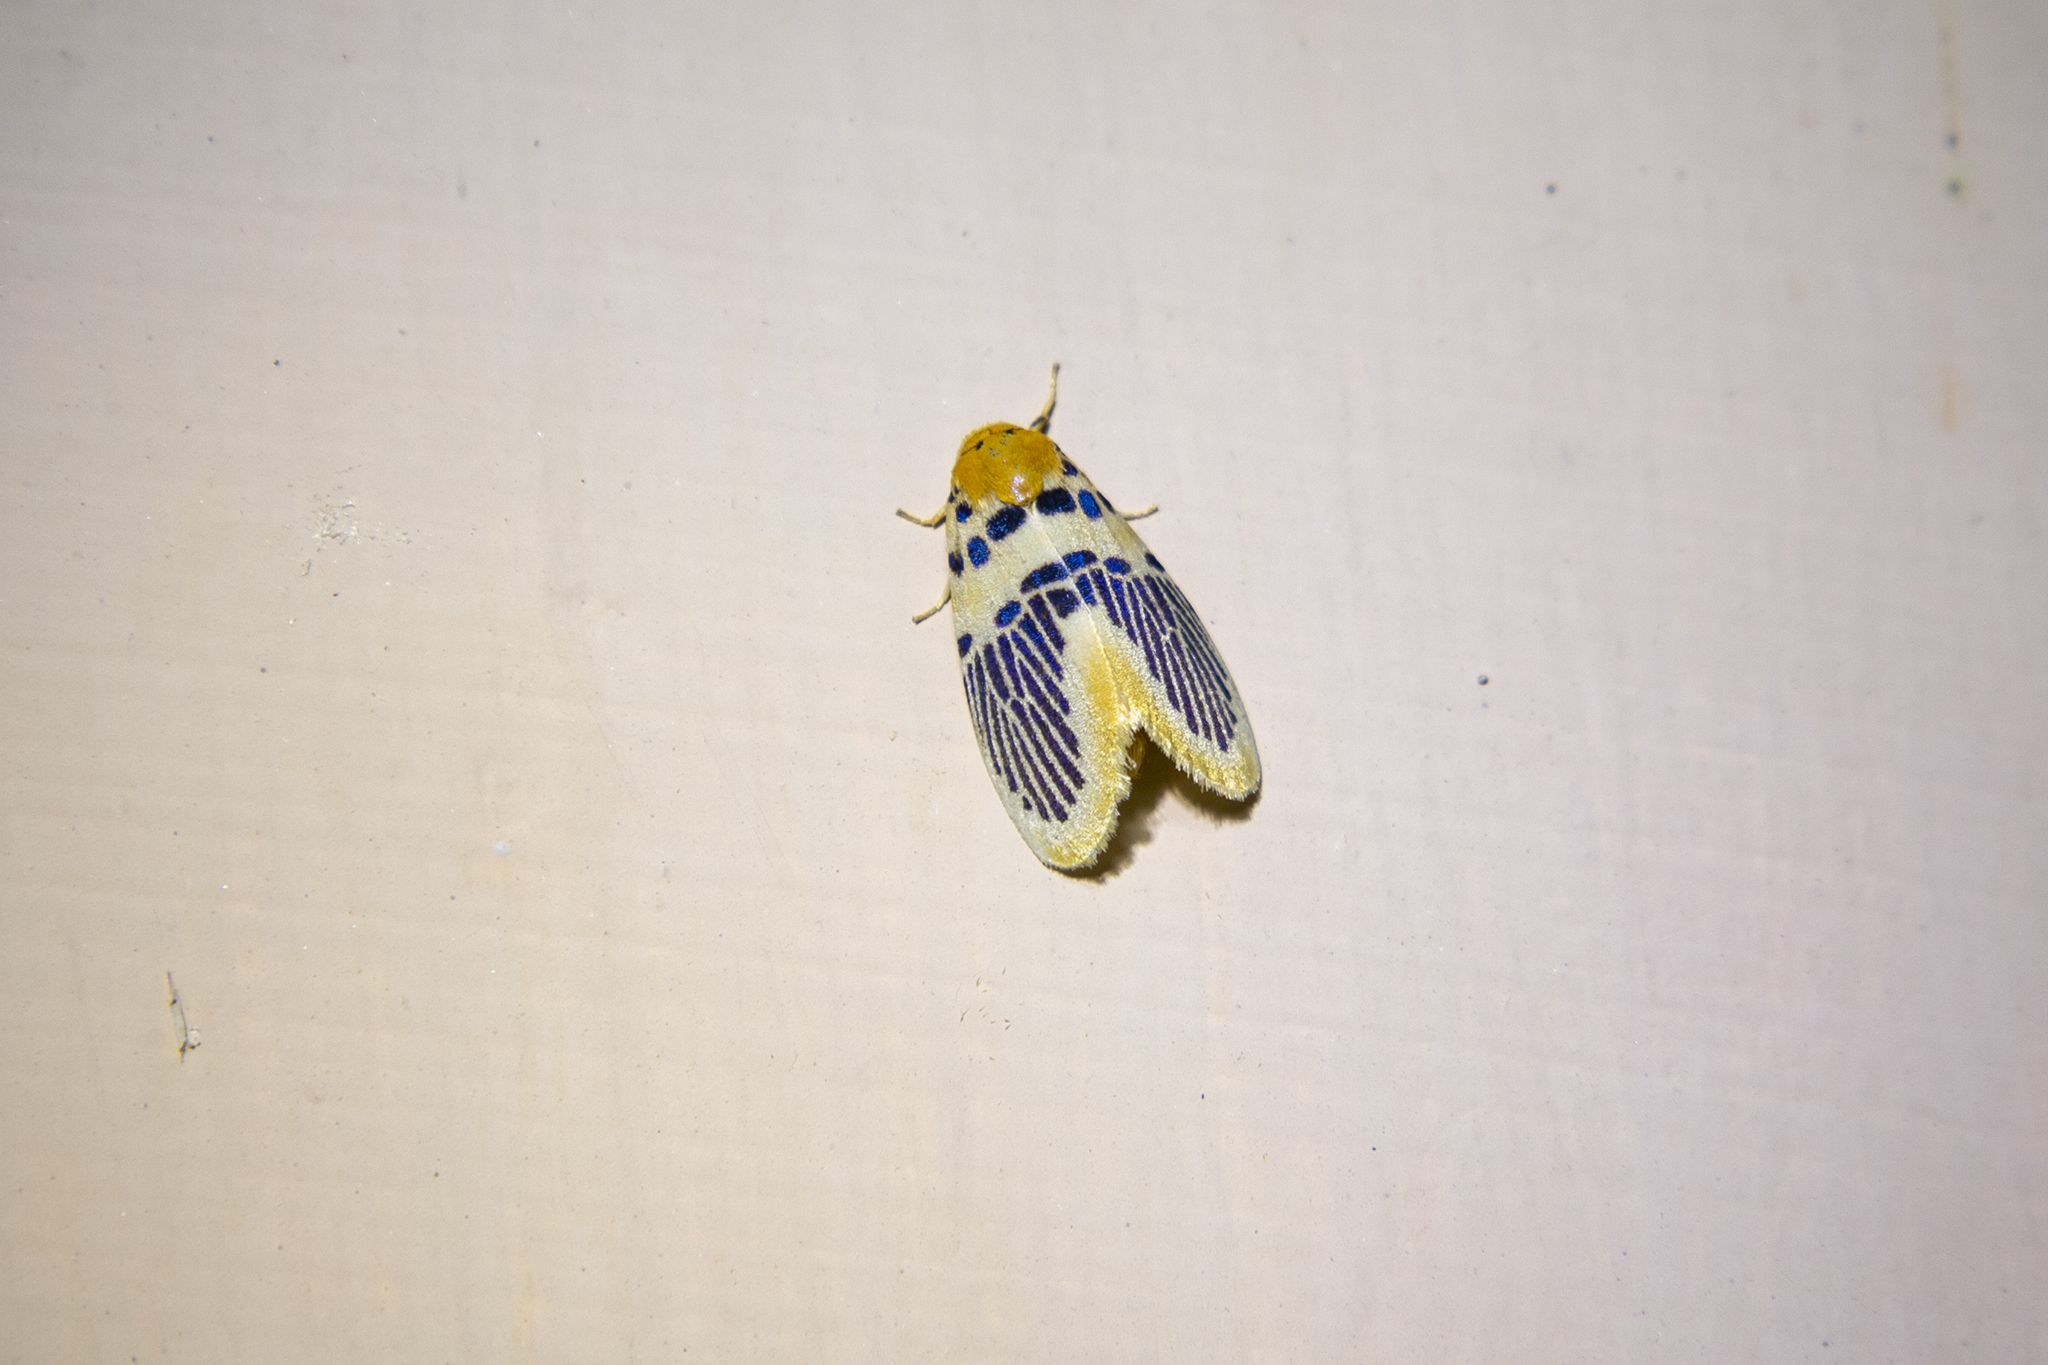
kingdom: Animalia
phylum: Arthropoda
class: Insecta
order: Lepidoptera
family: Erebidae
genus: Stigmatophora
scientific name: Stigmatophora palmata
